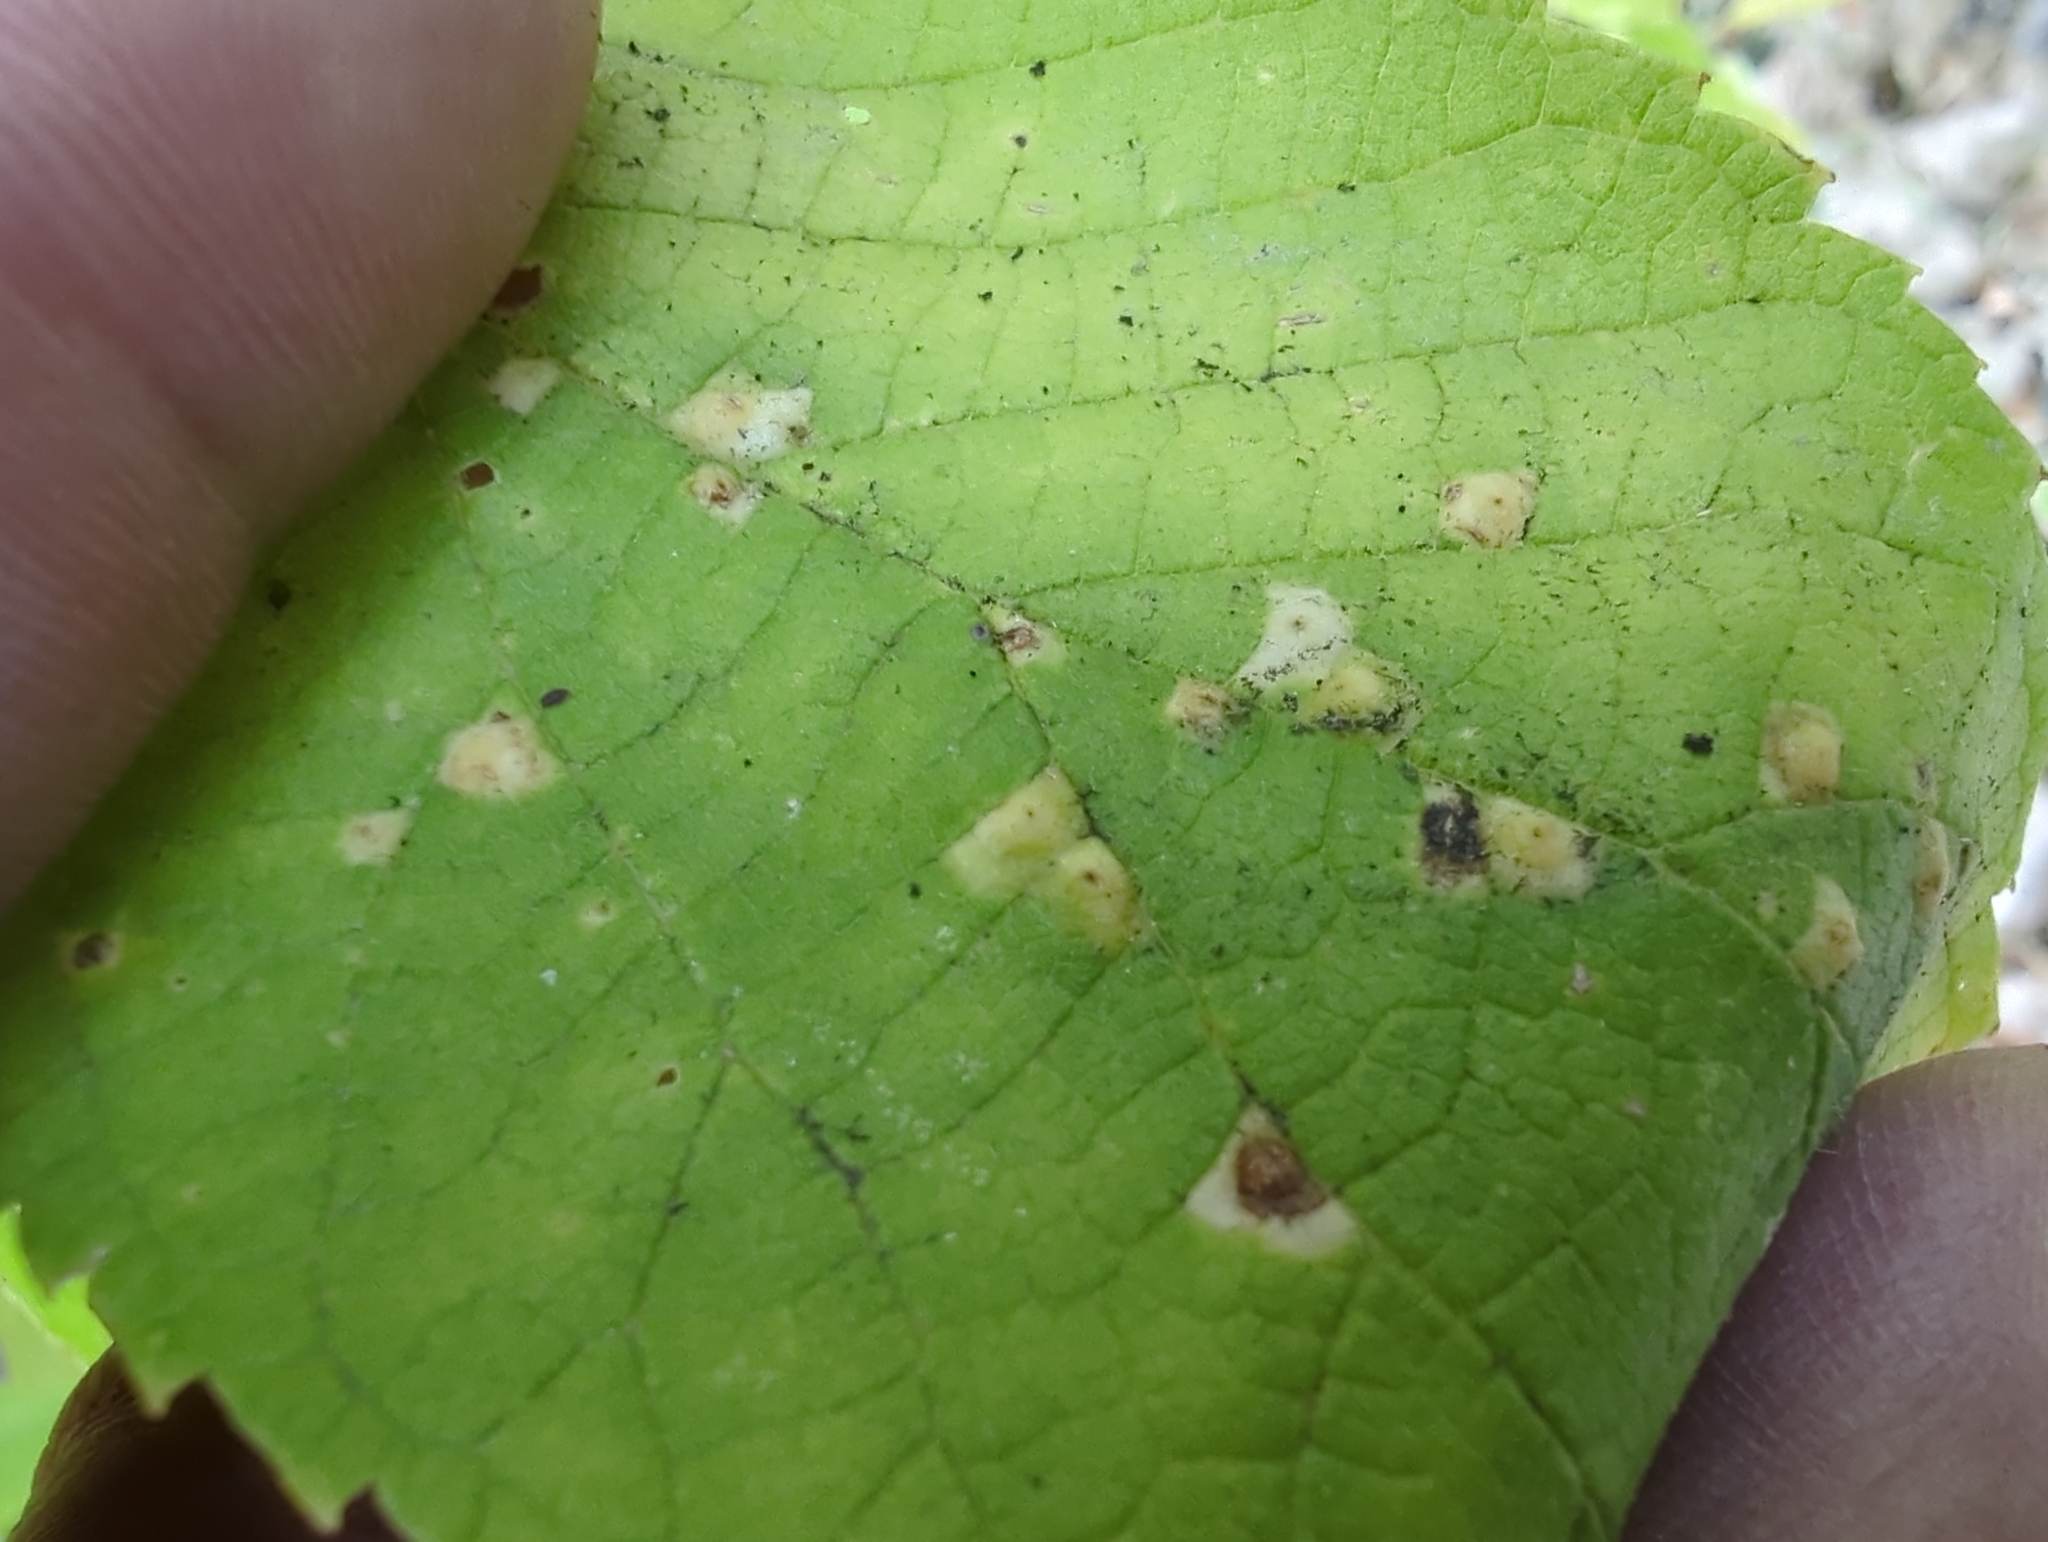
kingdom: Animalia
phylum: Arthropoda
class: Insecta
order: Hemiptera
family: Aphalaridae
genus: Pachypsylla
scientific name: Pachypsylla celtidisvesicula
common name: Hackberry blister gall psyllid
